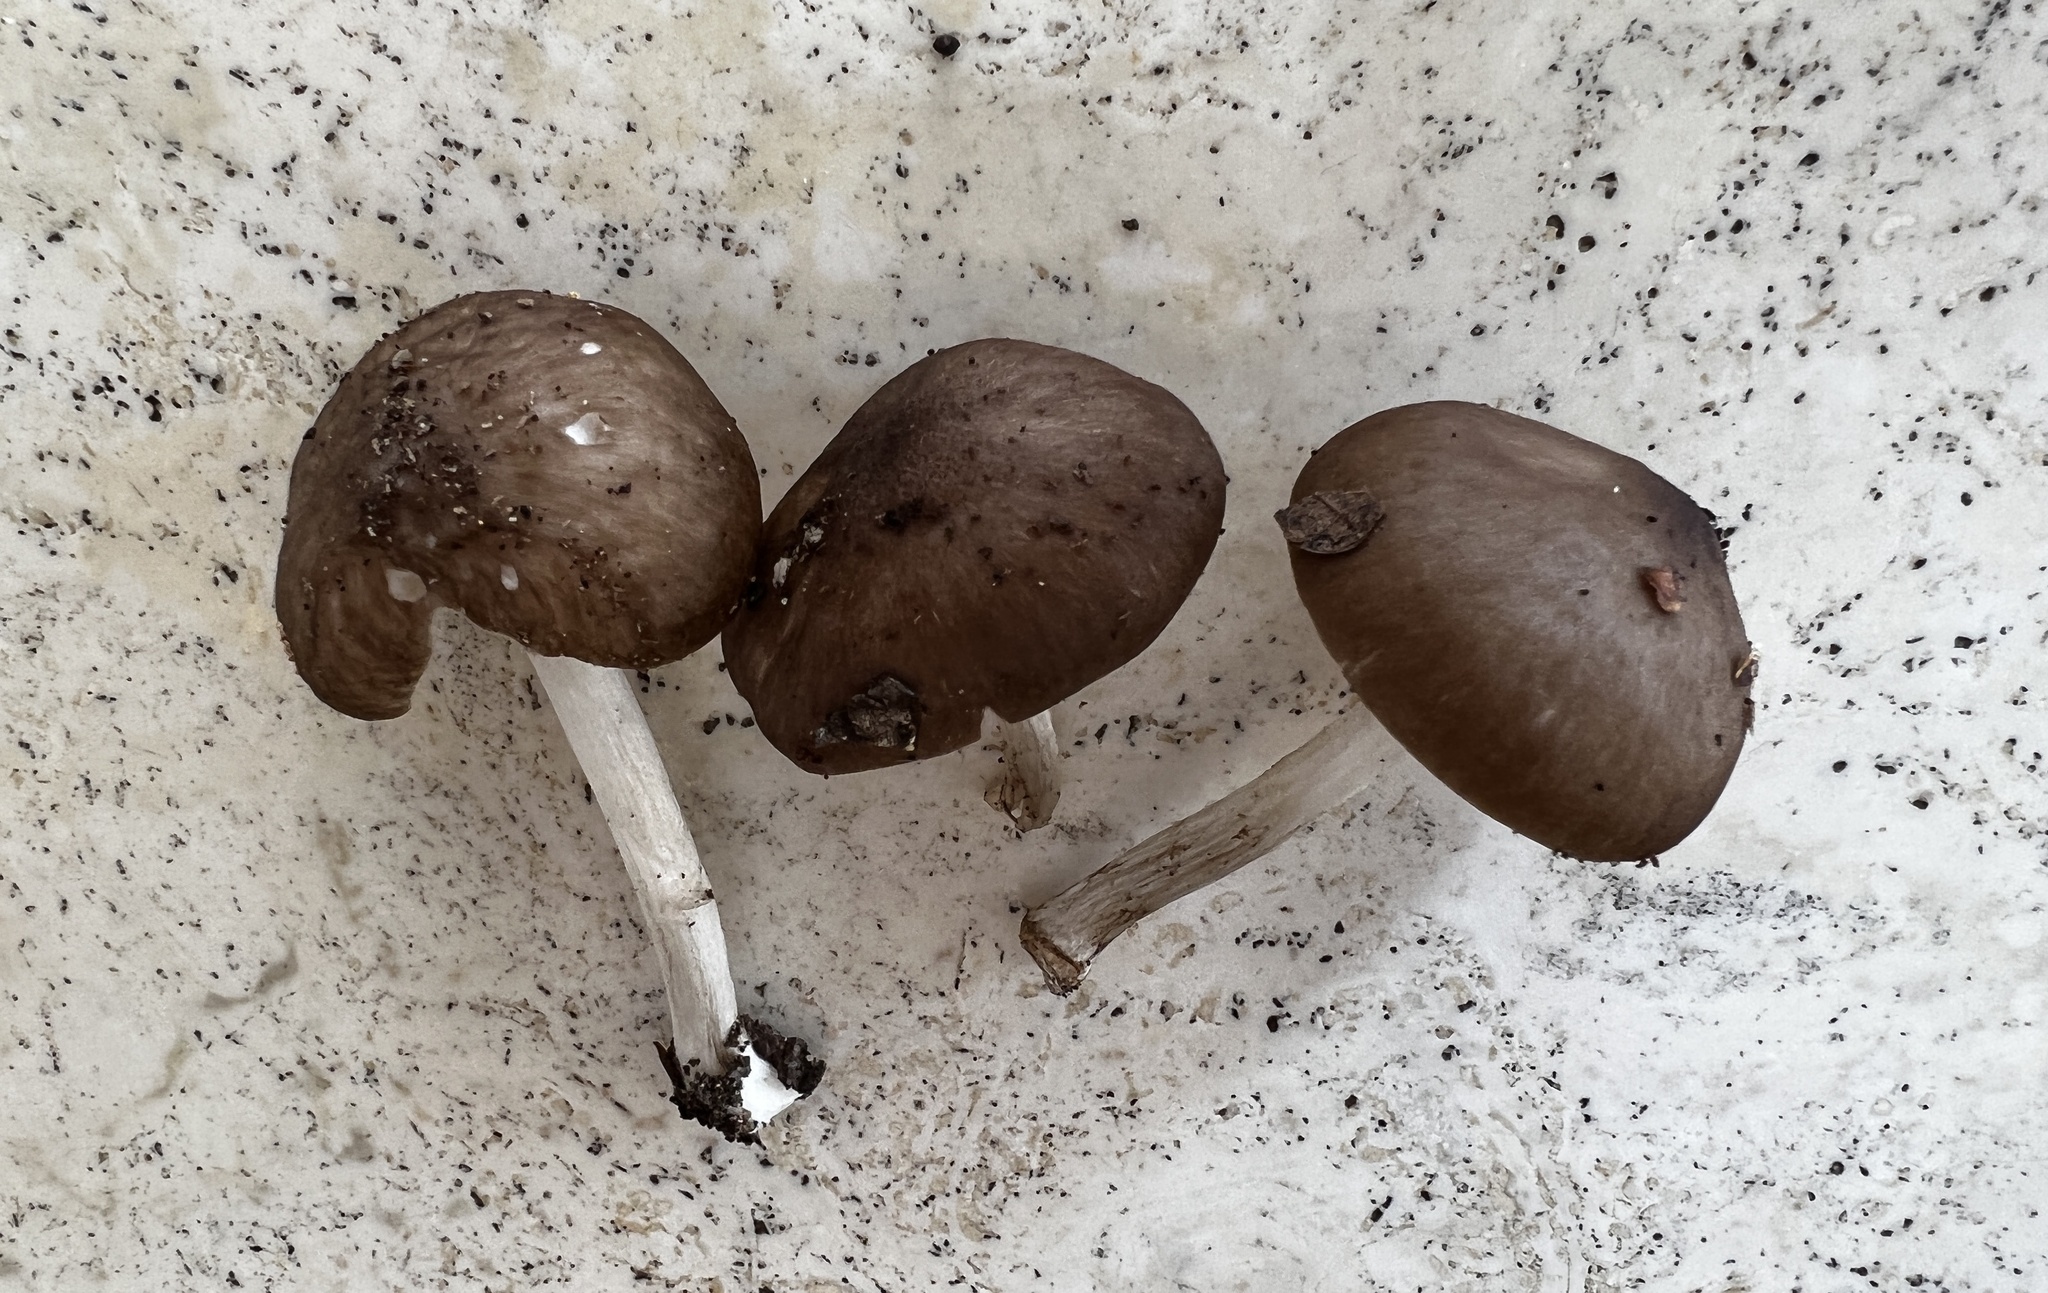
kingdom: Fungi
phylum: Basidiomycota
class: Agaricomycetes
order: Agaricales
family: Pluteaceae
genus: Pluteus
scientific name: Pluteus hongoi
